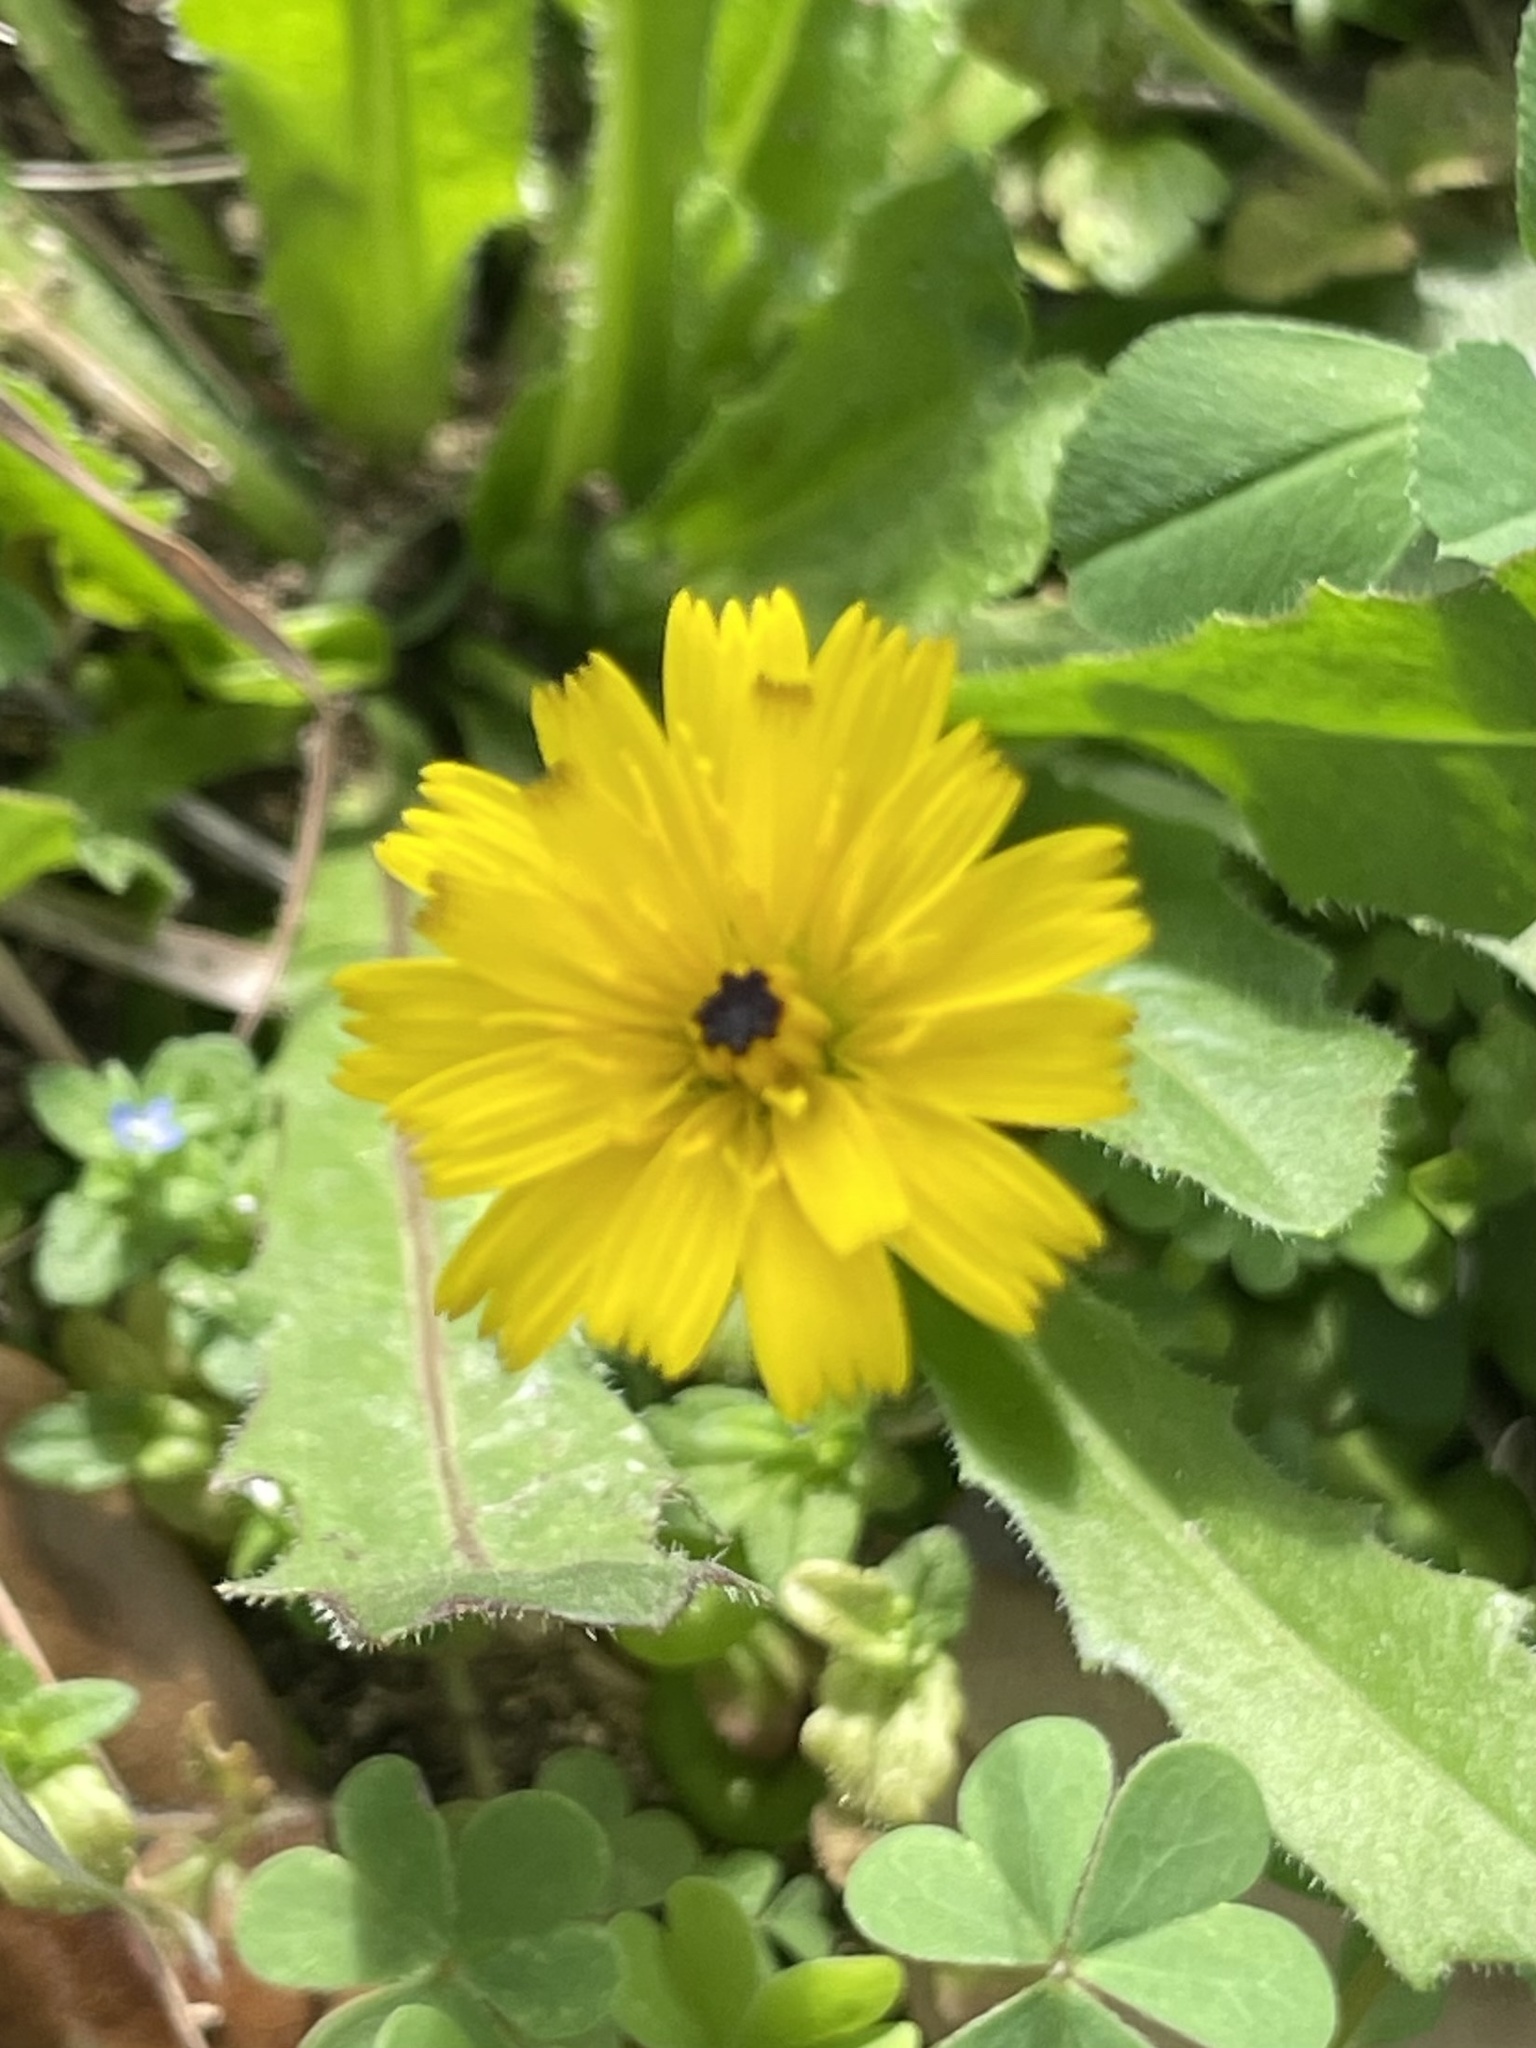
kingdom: Plantae
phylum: Tracheophyta
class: Magnoliopsida
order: Asterales
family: Asteraceae
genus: Hedypnois
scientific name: Hedypnois rhagadioloides
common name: Cretan weed
